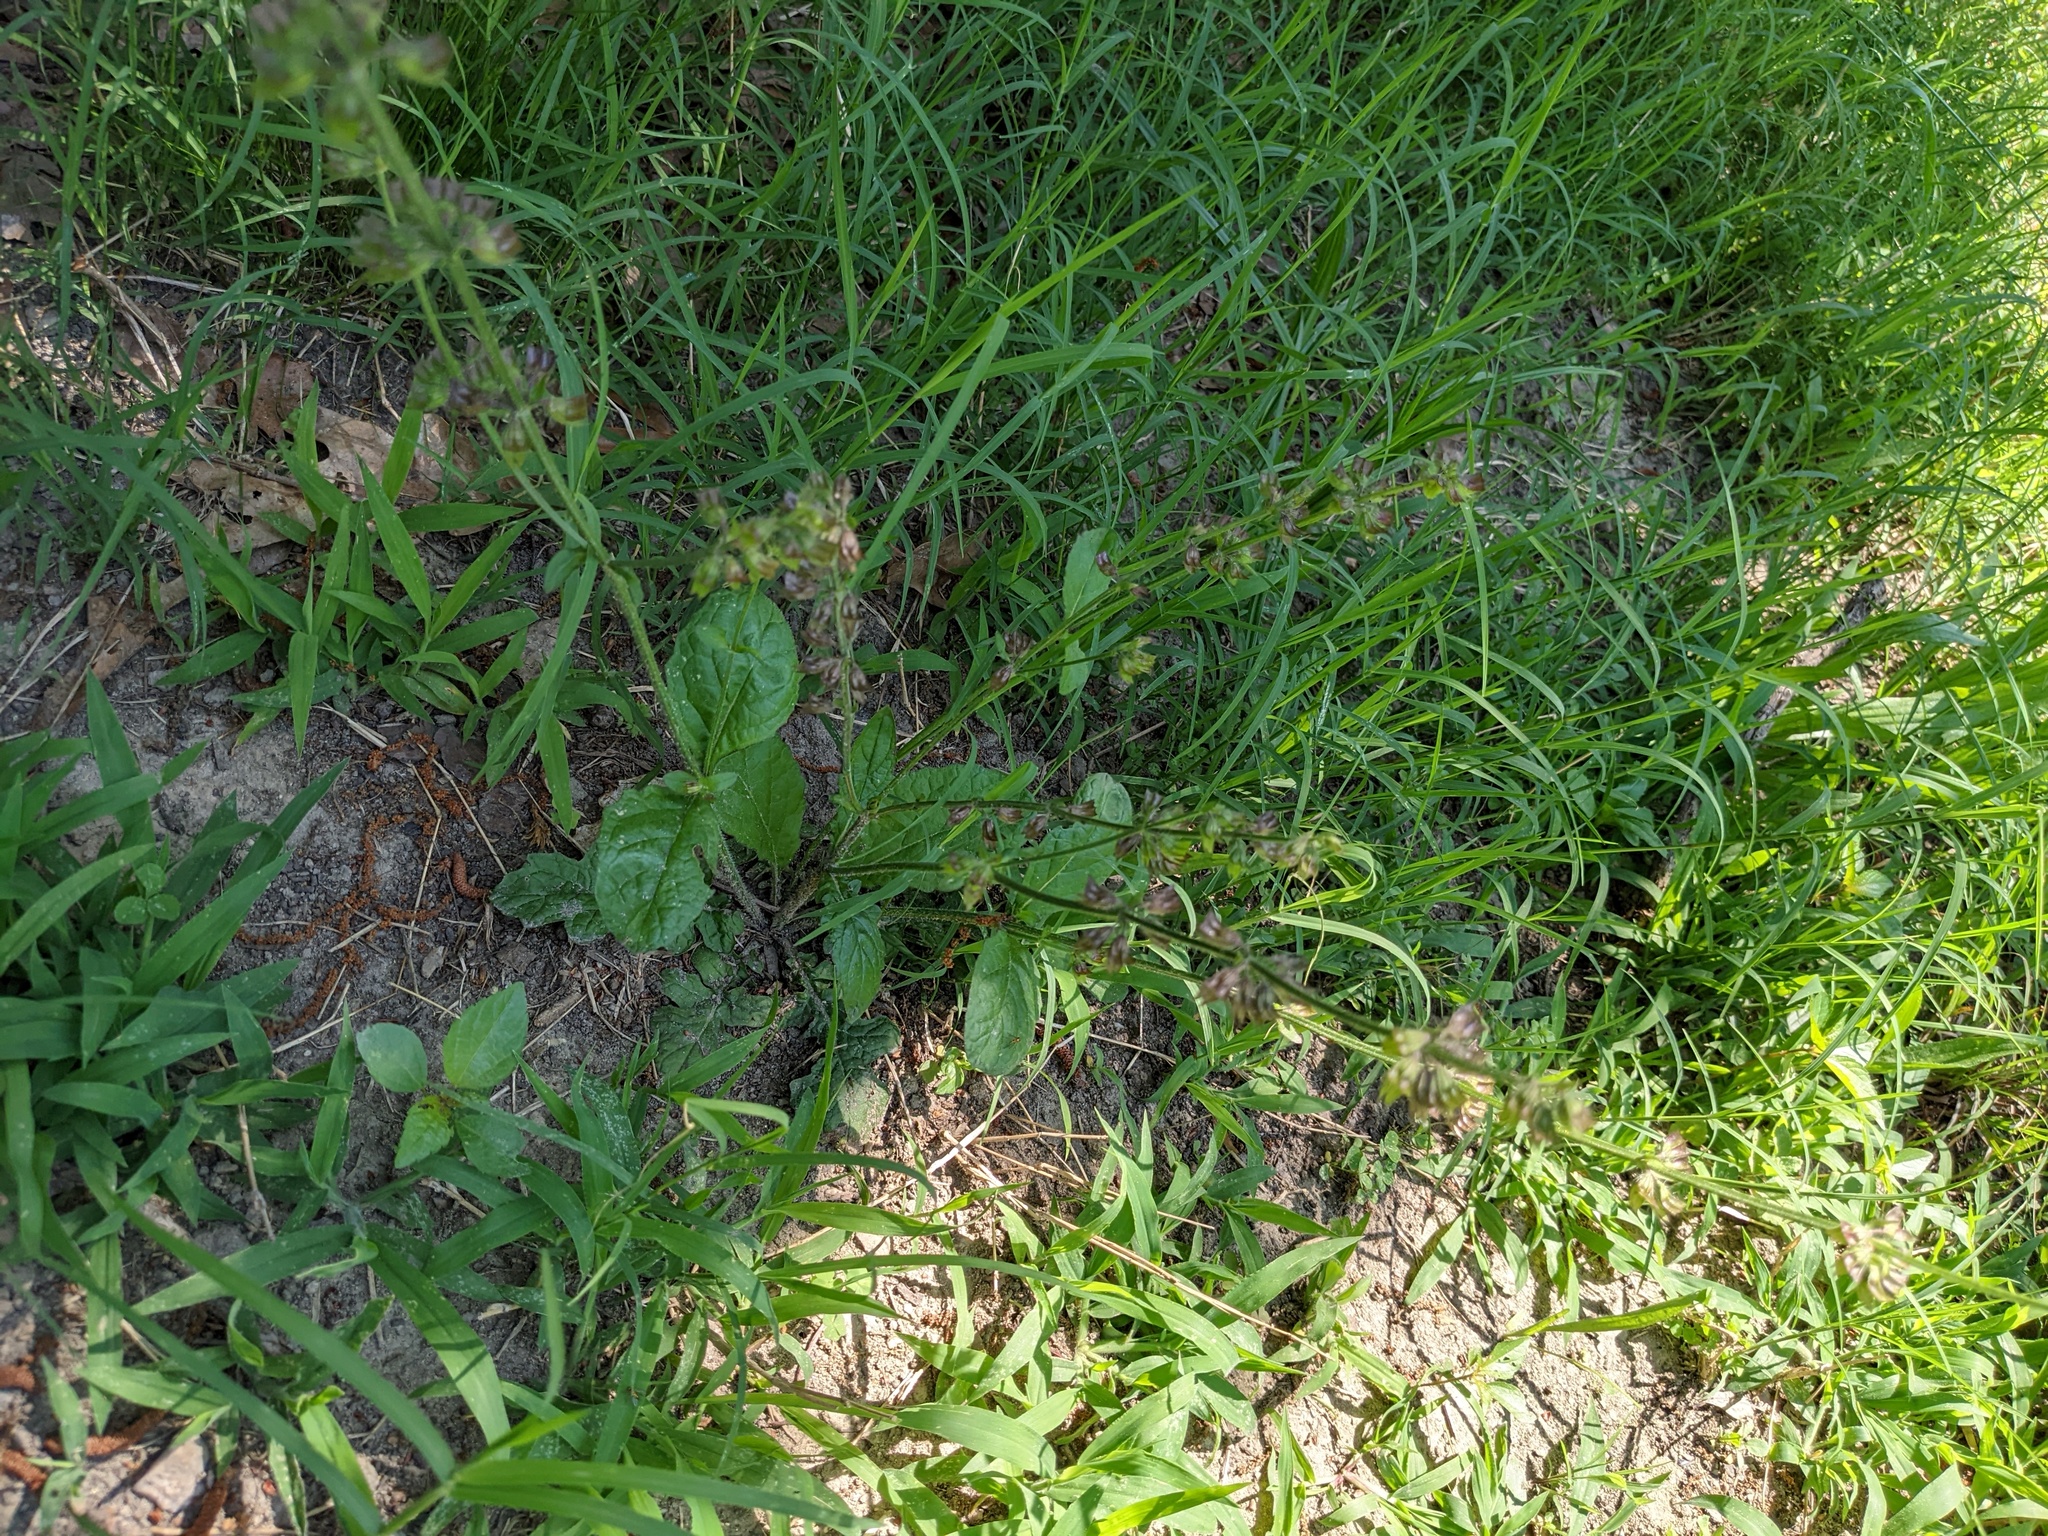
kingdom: Plantae
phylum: Tracheophyta
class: Magnoliopsida
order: Lamiales
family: Lamiaceae
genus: Salvia
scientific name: Salvia lyrata
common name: Cancerweed
